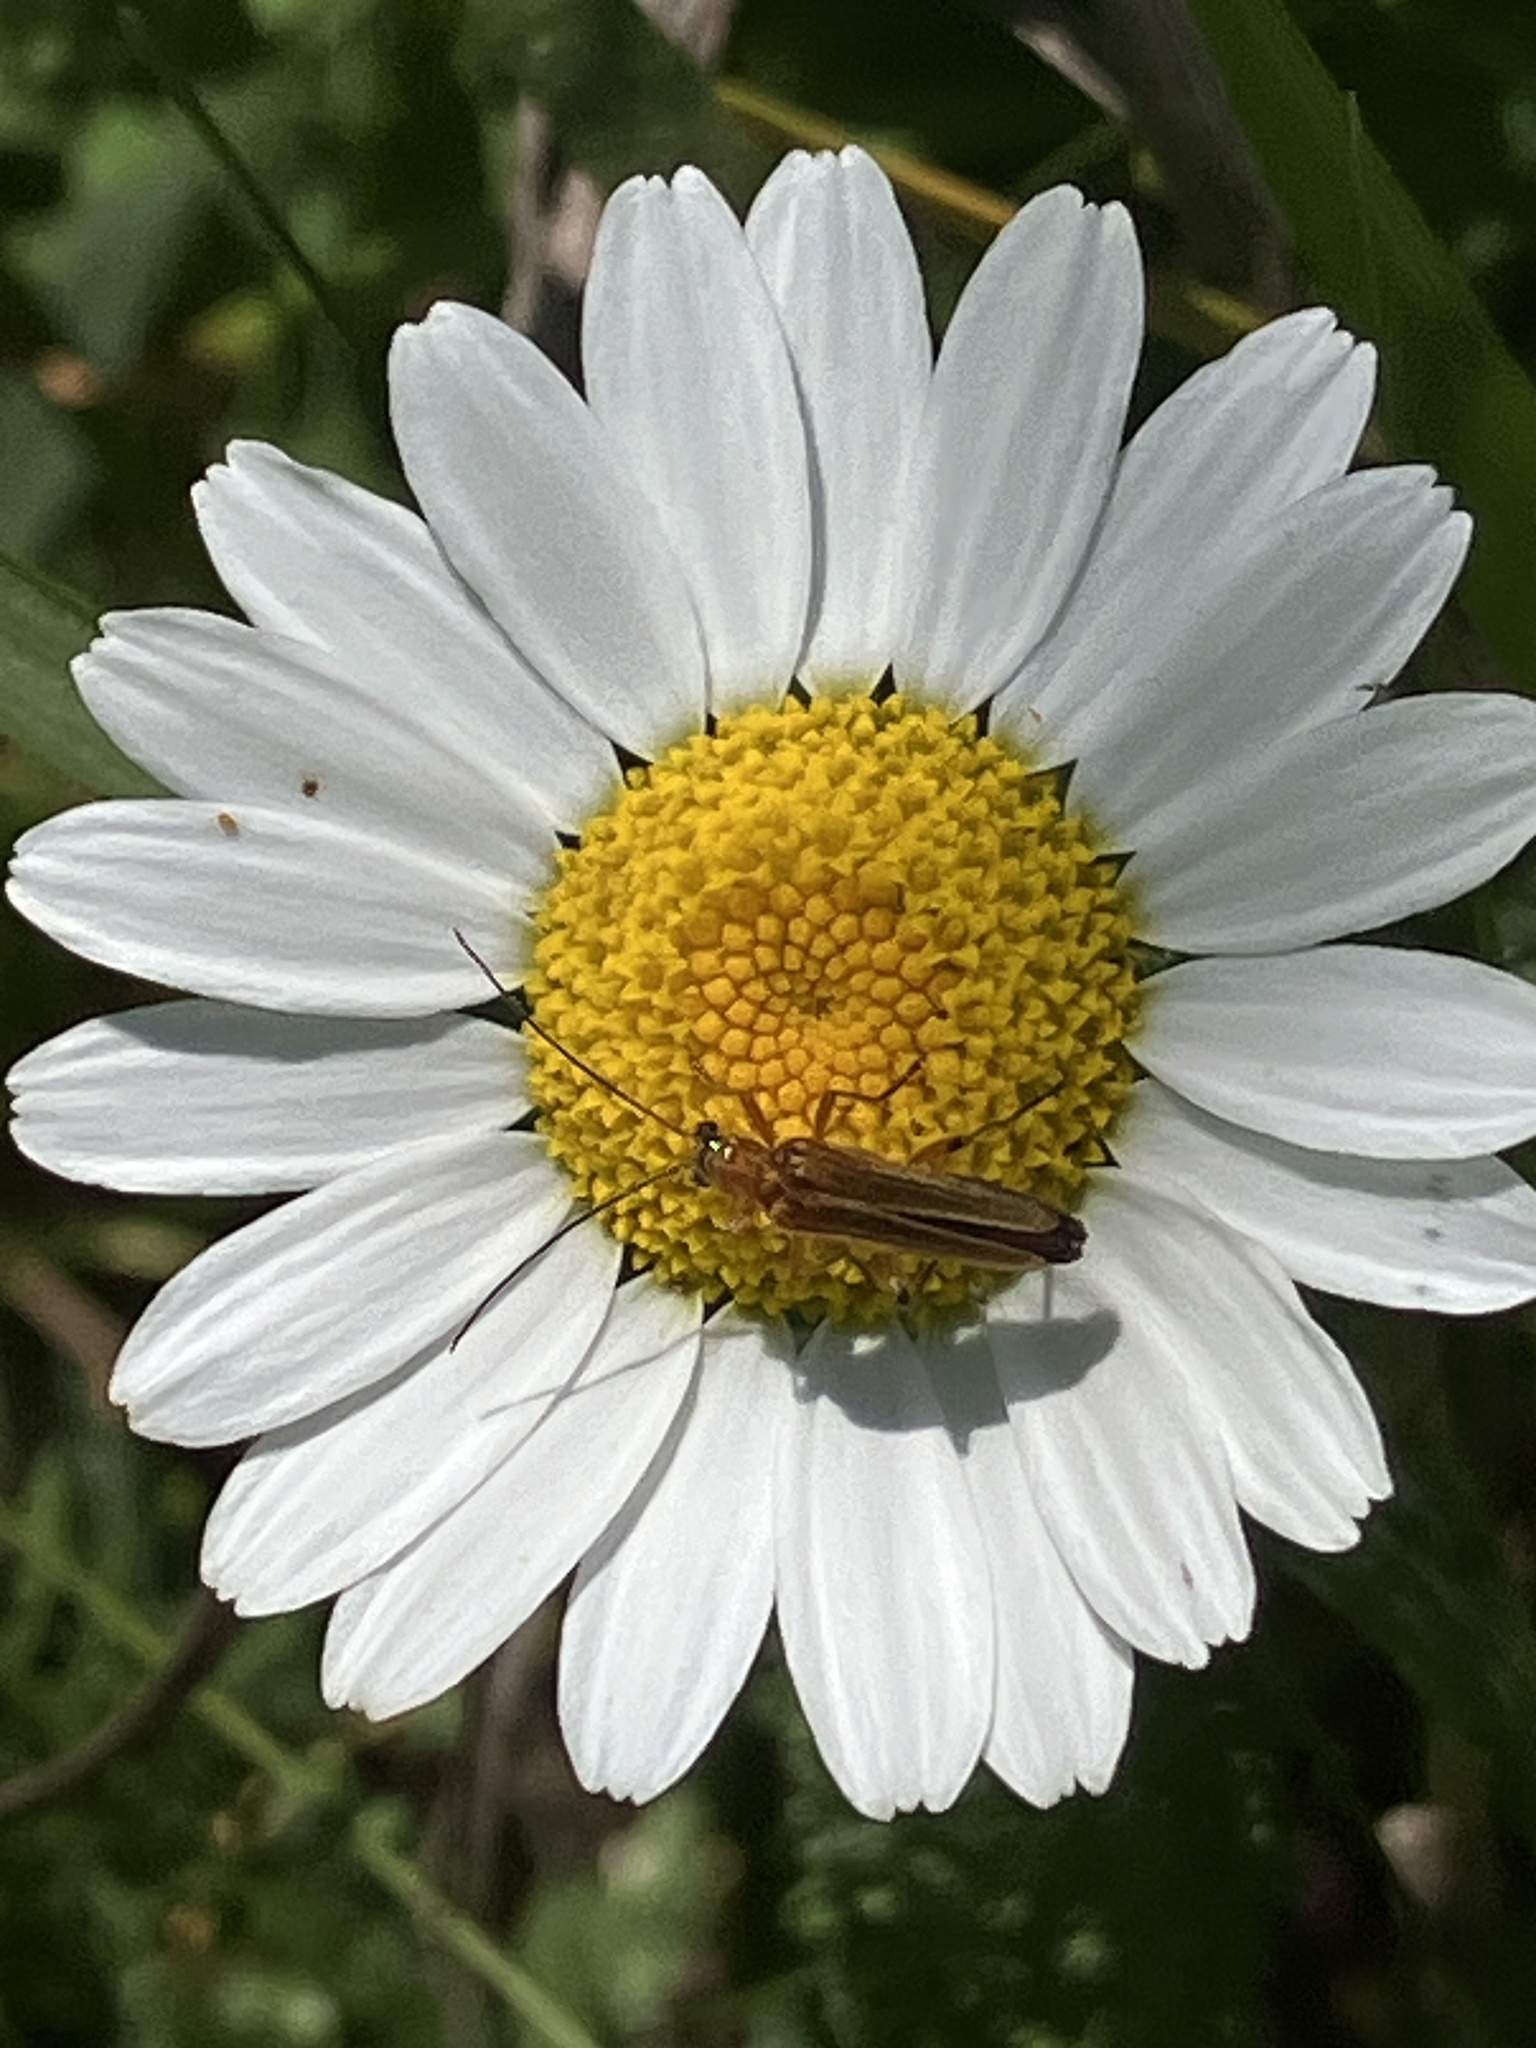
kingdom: Animalia
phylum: Arthropoda
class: Insecta
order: Coleoptera
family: Oedemeridae
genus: Oedemera
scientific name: Oedemera podagrariae
